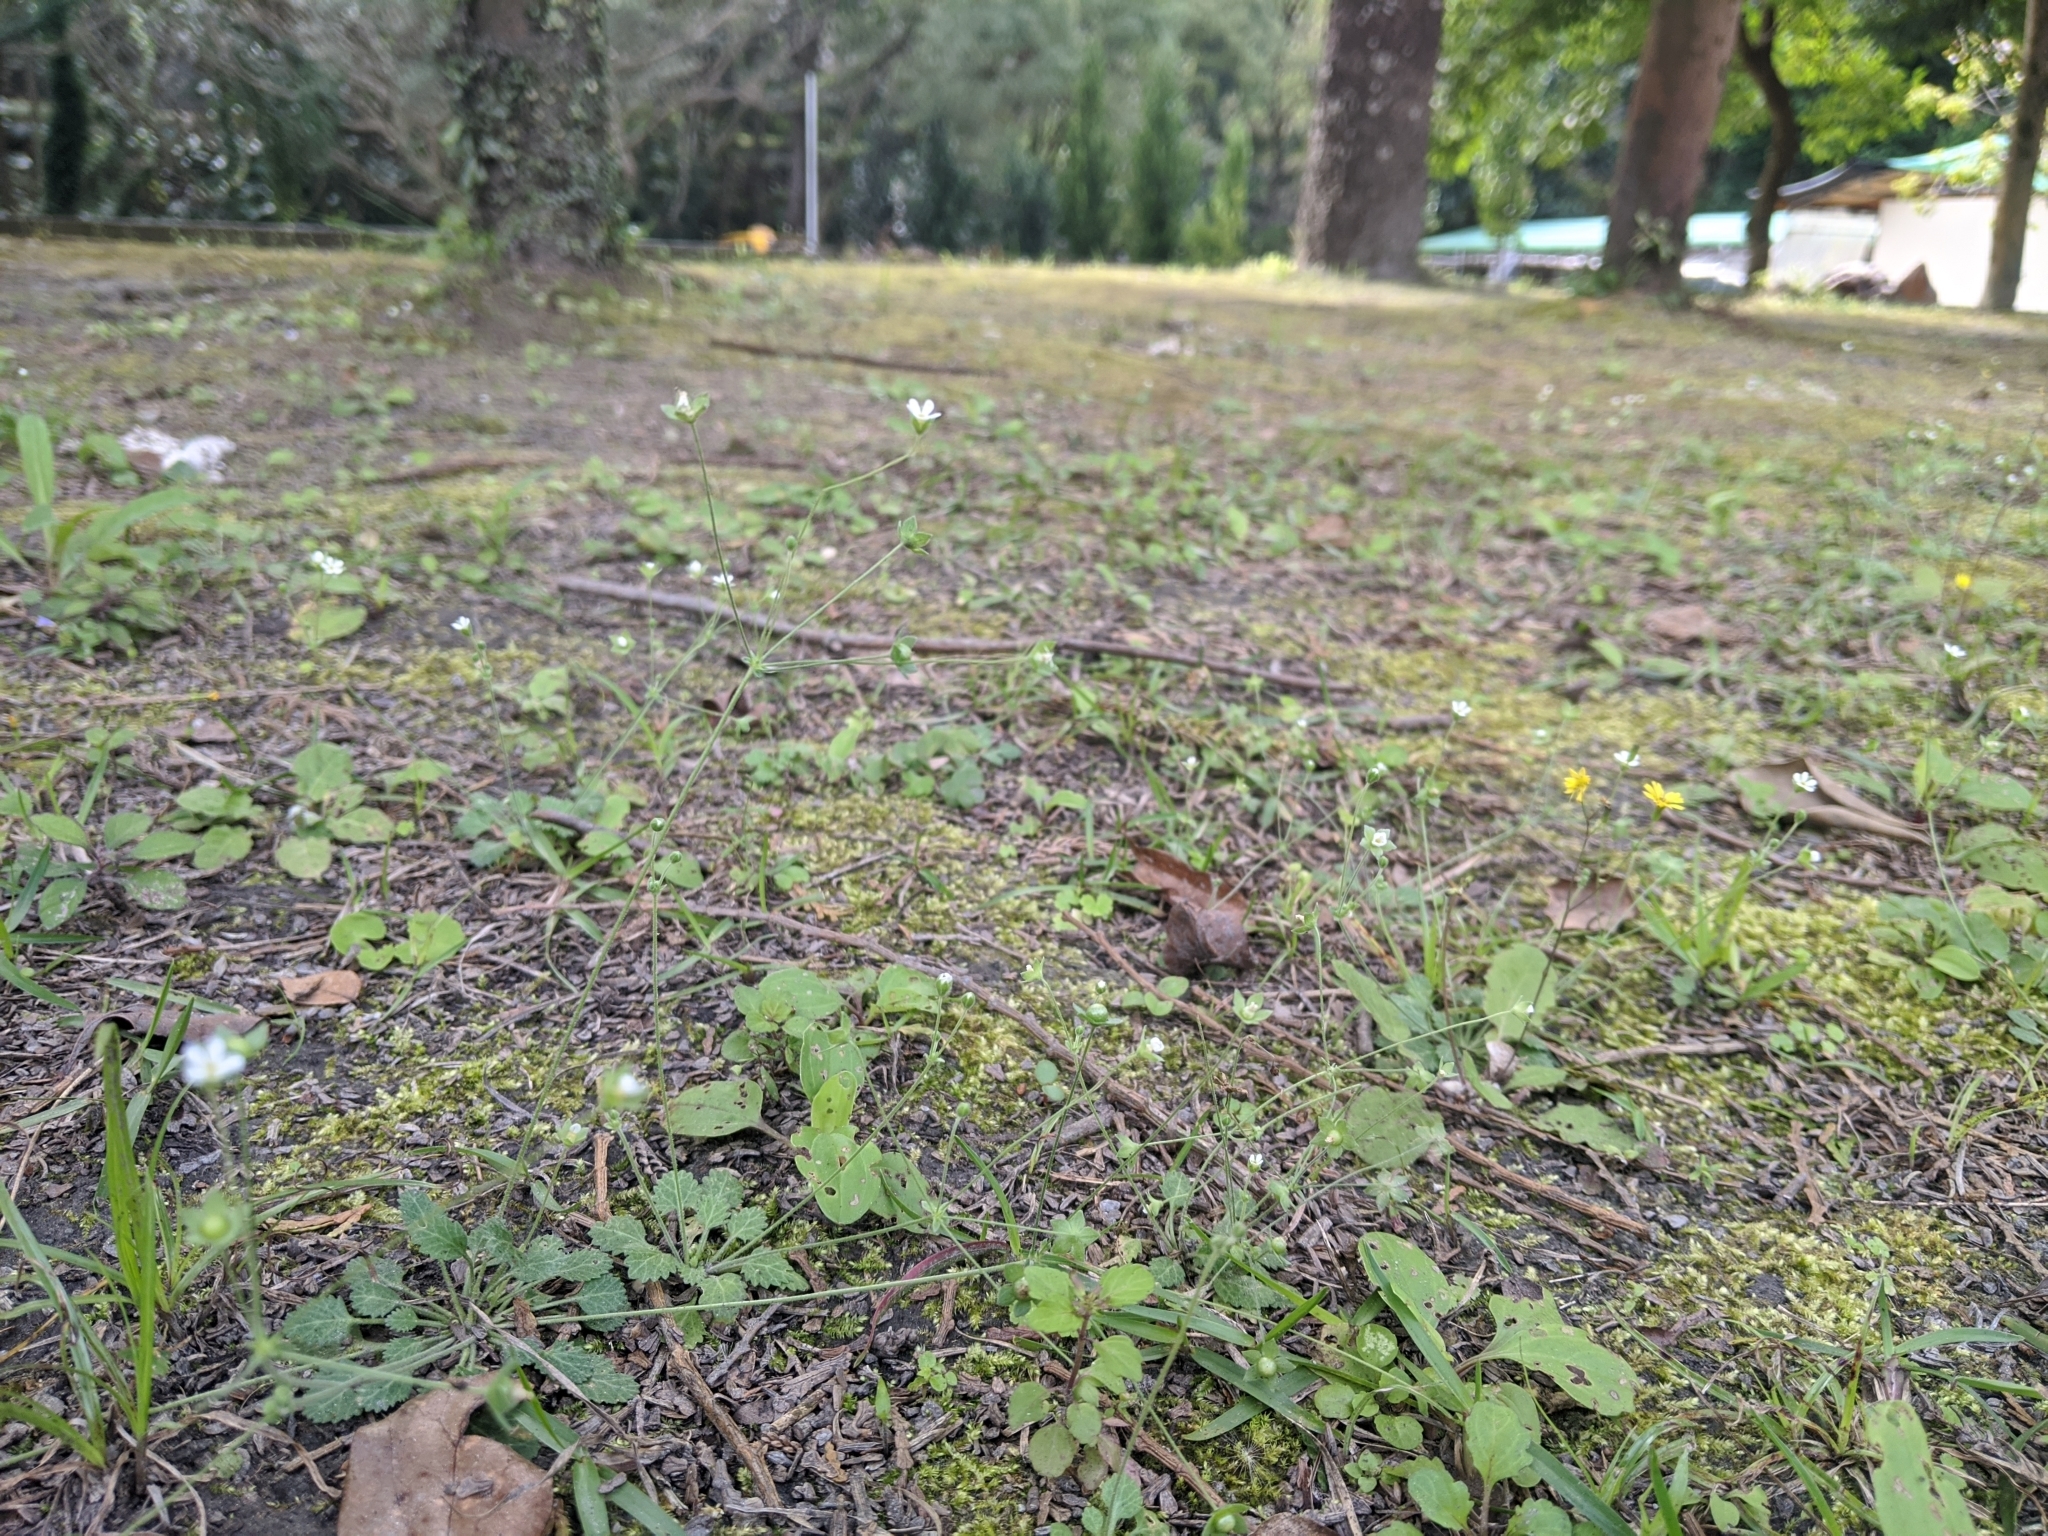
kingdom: Plantae
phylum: Tracheophyta
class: Magnoliopsida
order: Ericales
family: Primulaceae
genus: Androsace
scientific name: Androsace umbellata
